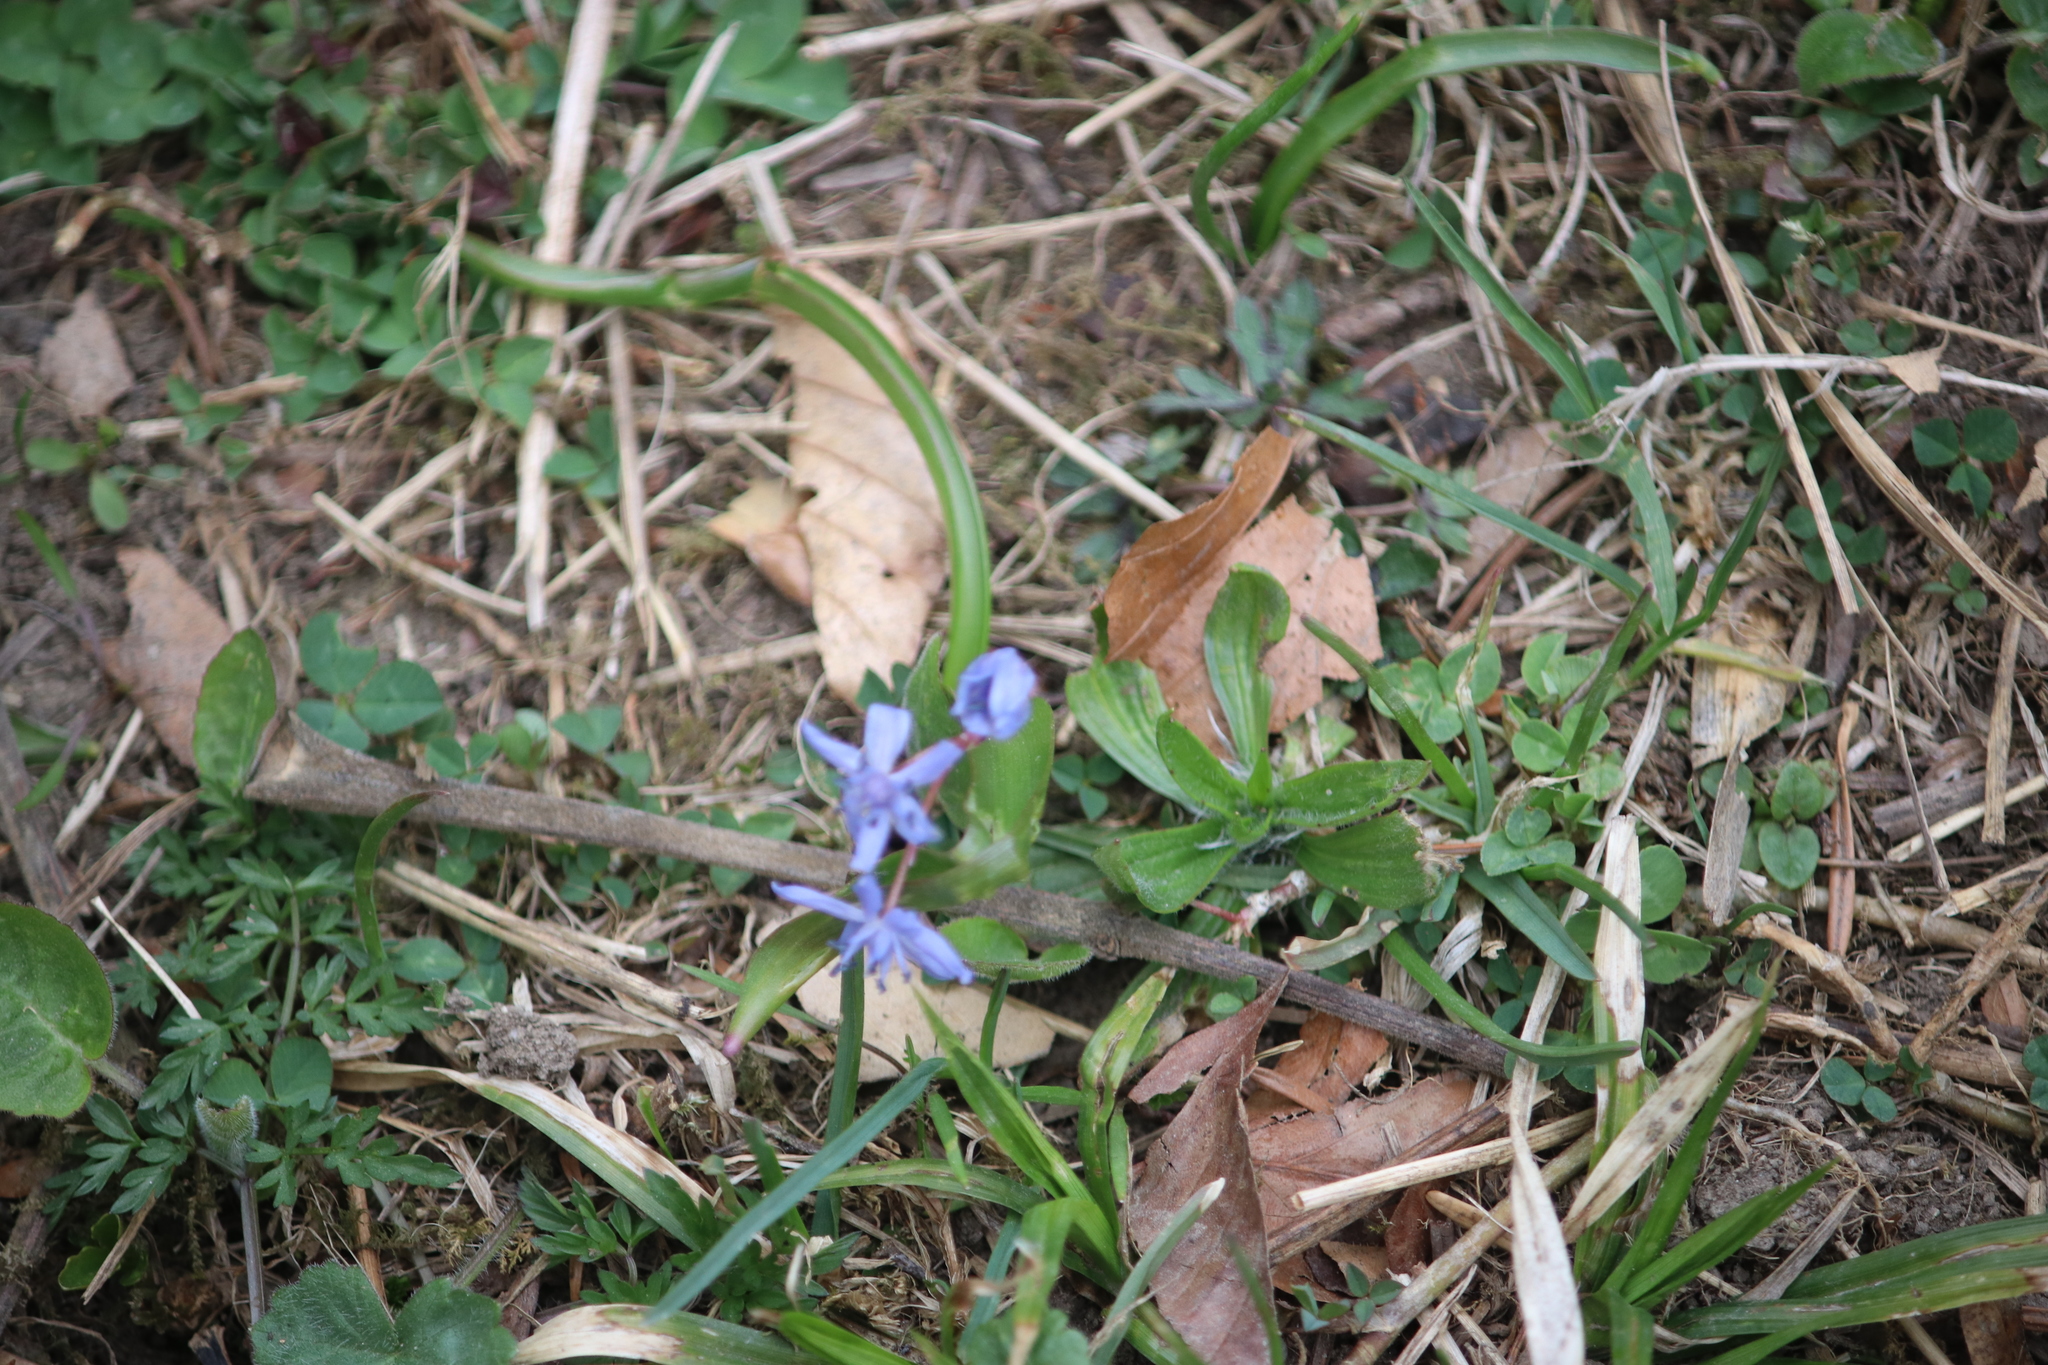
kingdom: Plantae
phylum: Tracheophyta
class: Liliopsida
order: Asparagales
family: Asparagaceae
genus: Scilla
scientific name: Scilla bifolia
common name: Alpine squill
